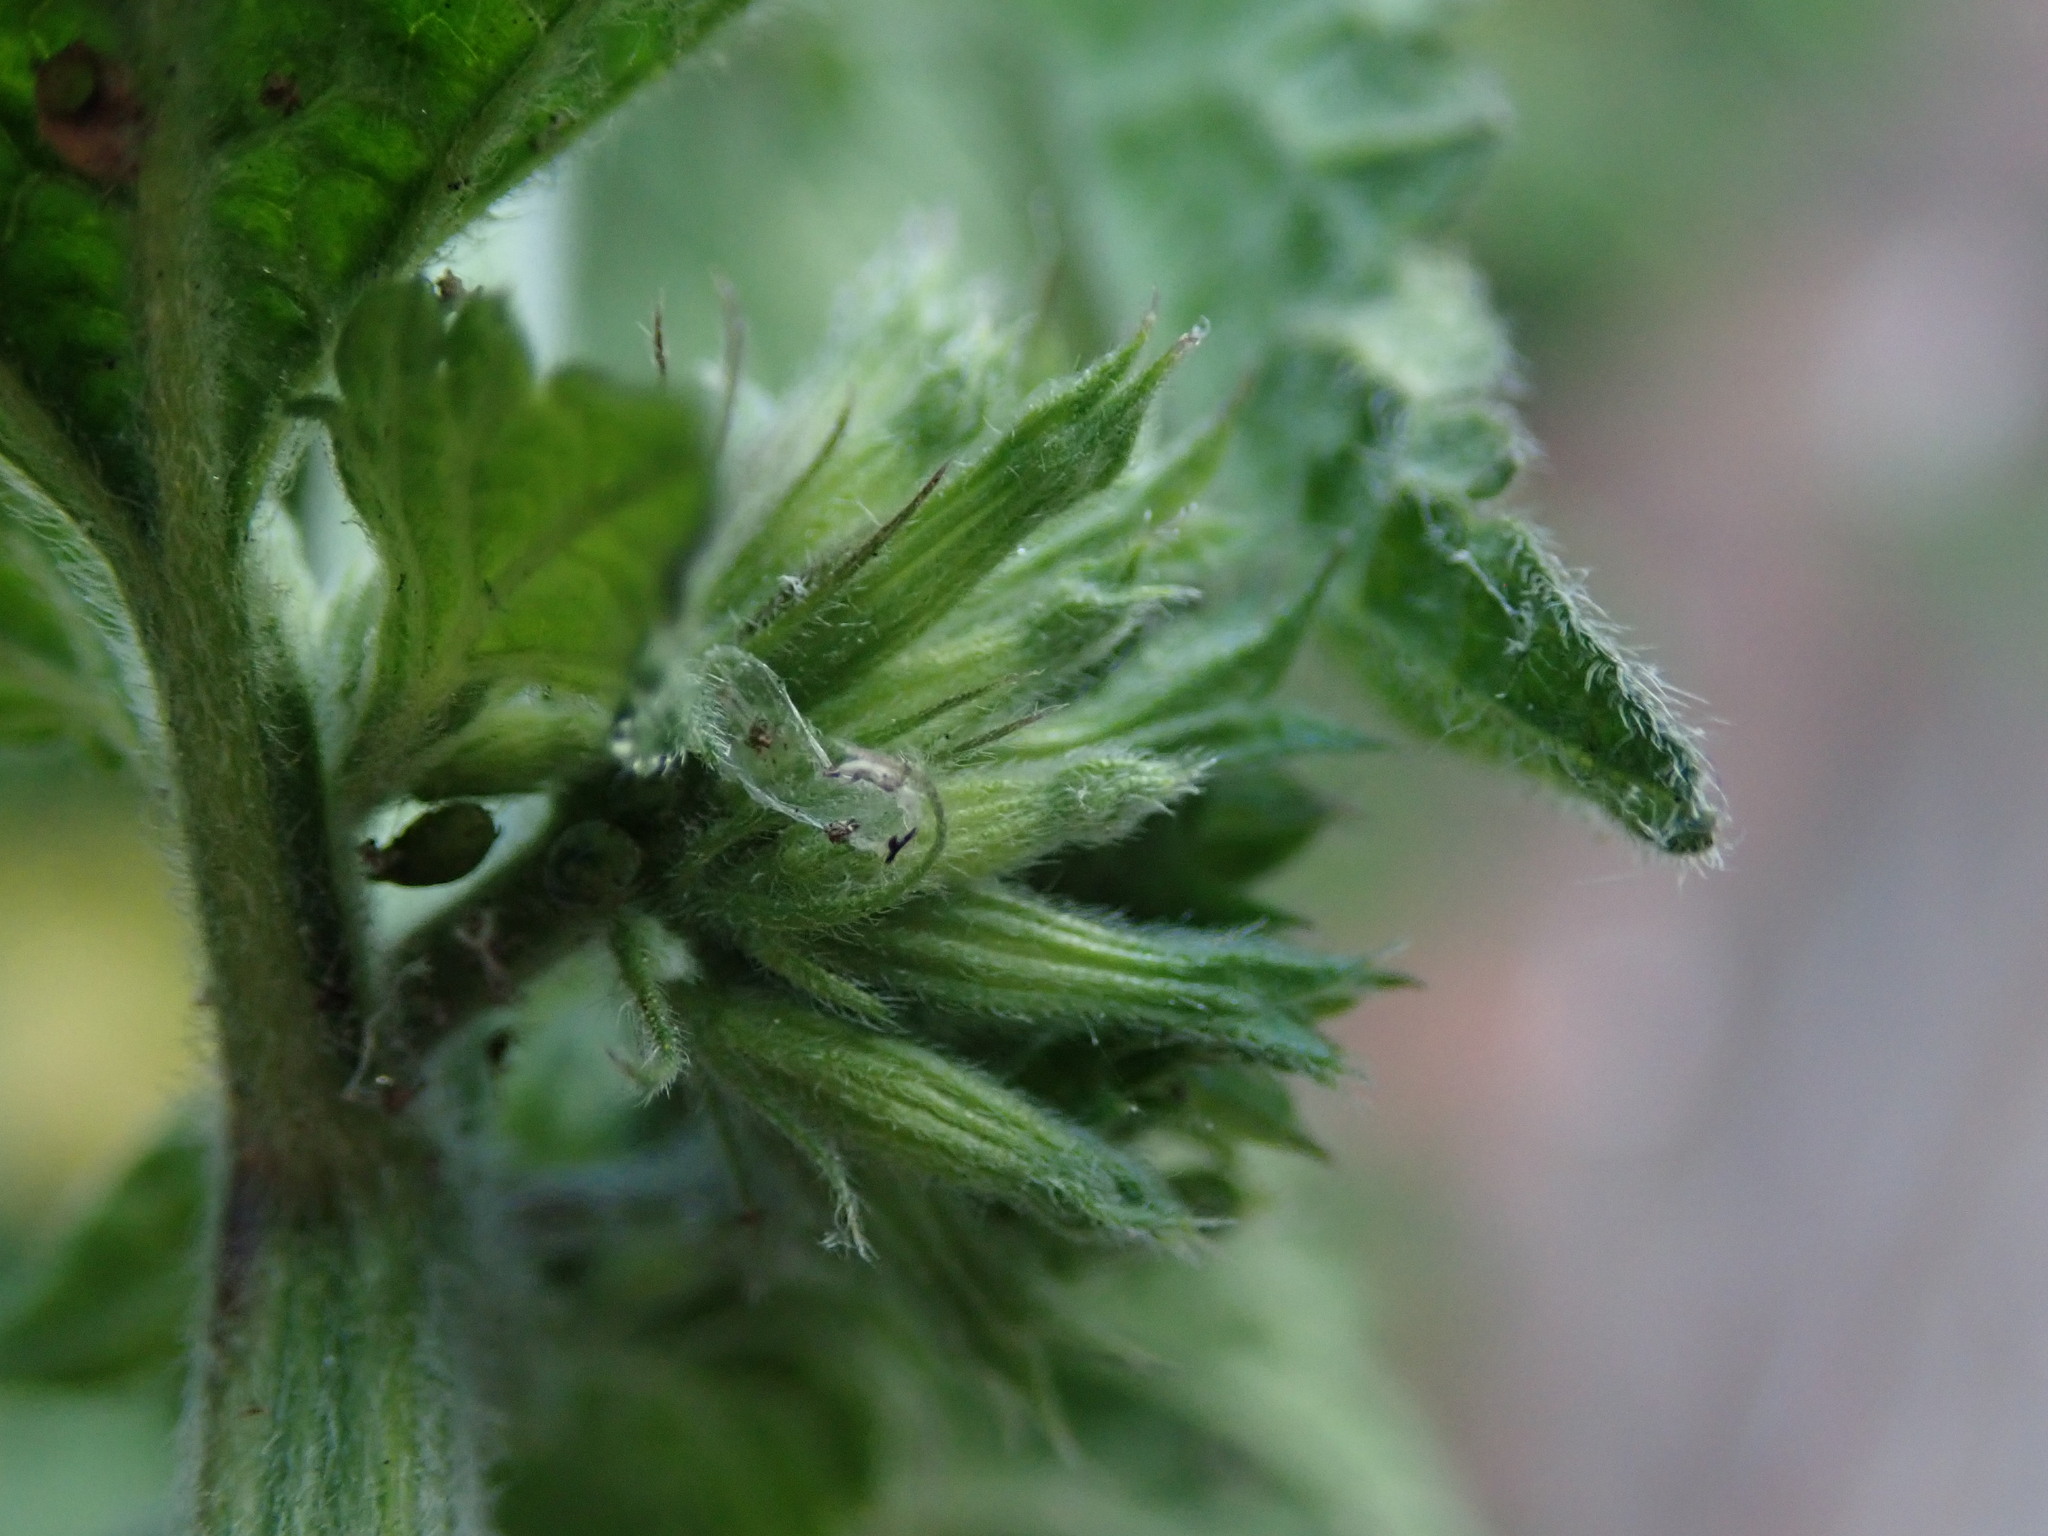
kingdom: Plantae
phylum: Tracheophyta
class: Magnoliopsida
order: Lamiales
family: Lamiaceae
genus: Ballota
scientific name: Ballota nigra
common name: Black horehound
